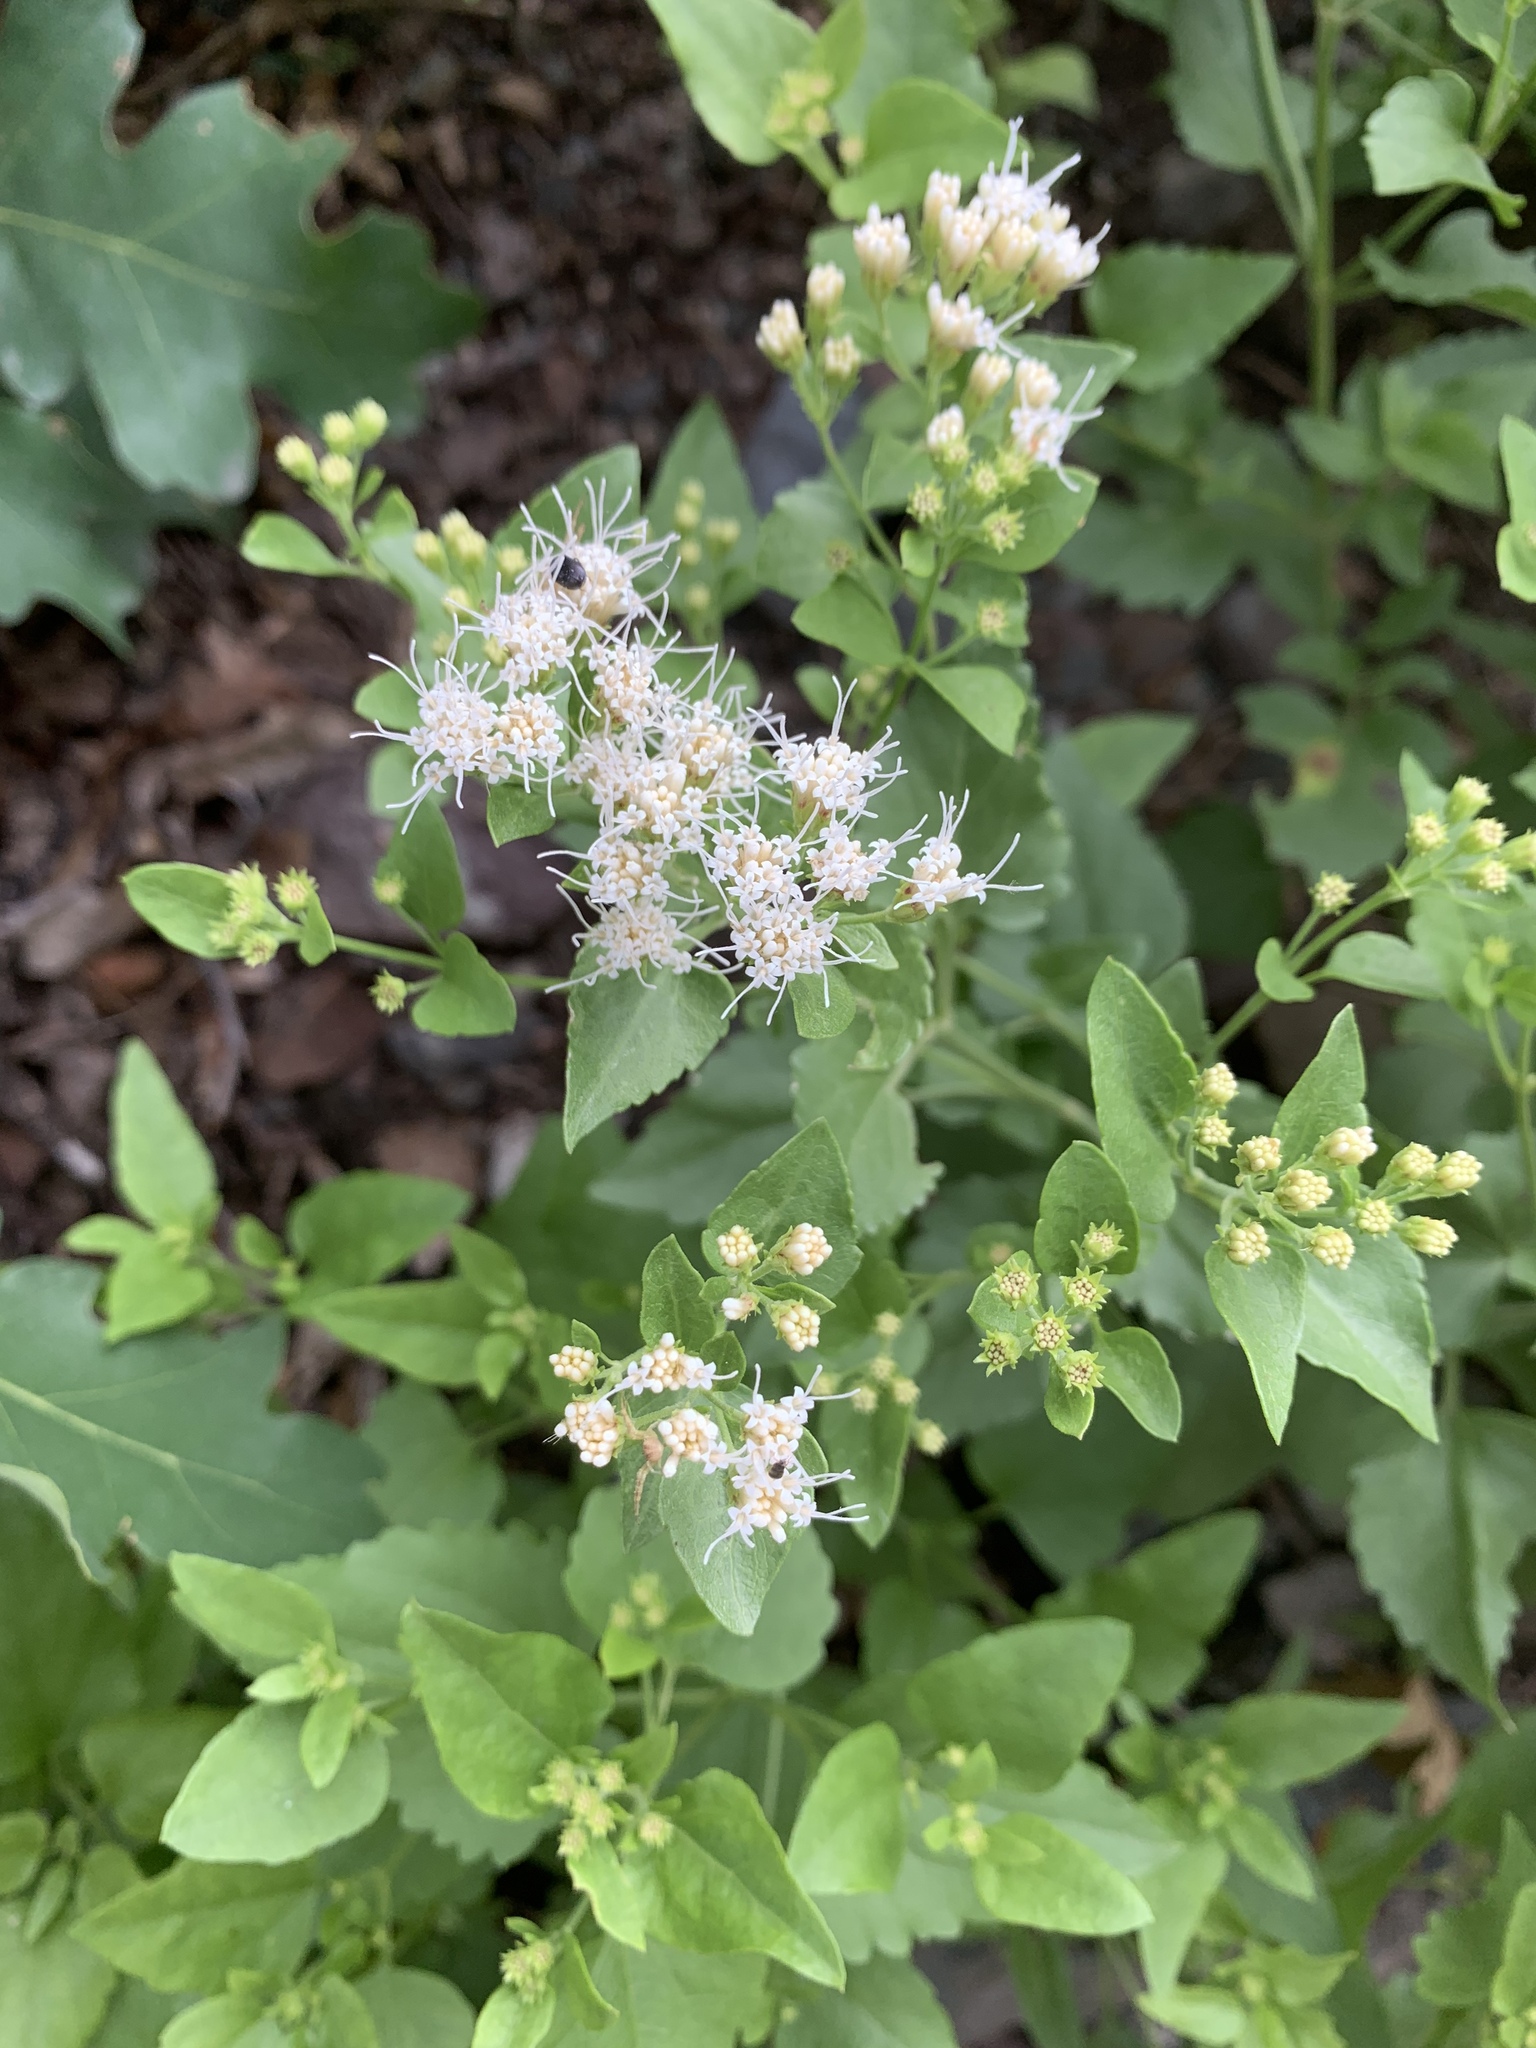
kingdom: Plantae
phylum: Tracheophyta
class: Magnoliopsida
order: Asterales
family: Asteraceae
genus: Ageratina
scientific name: Ageratina herbacea
